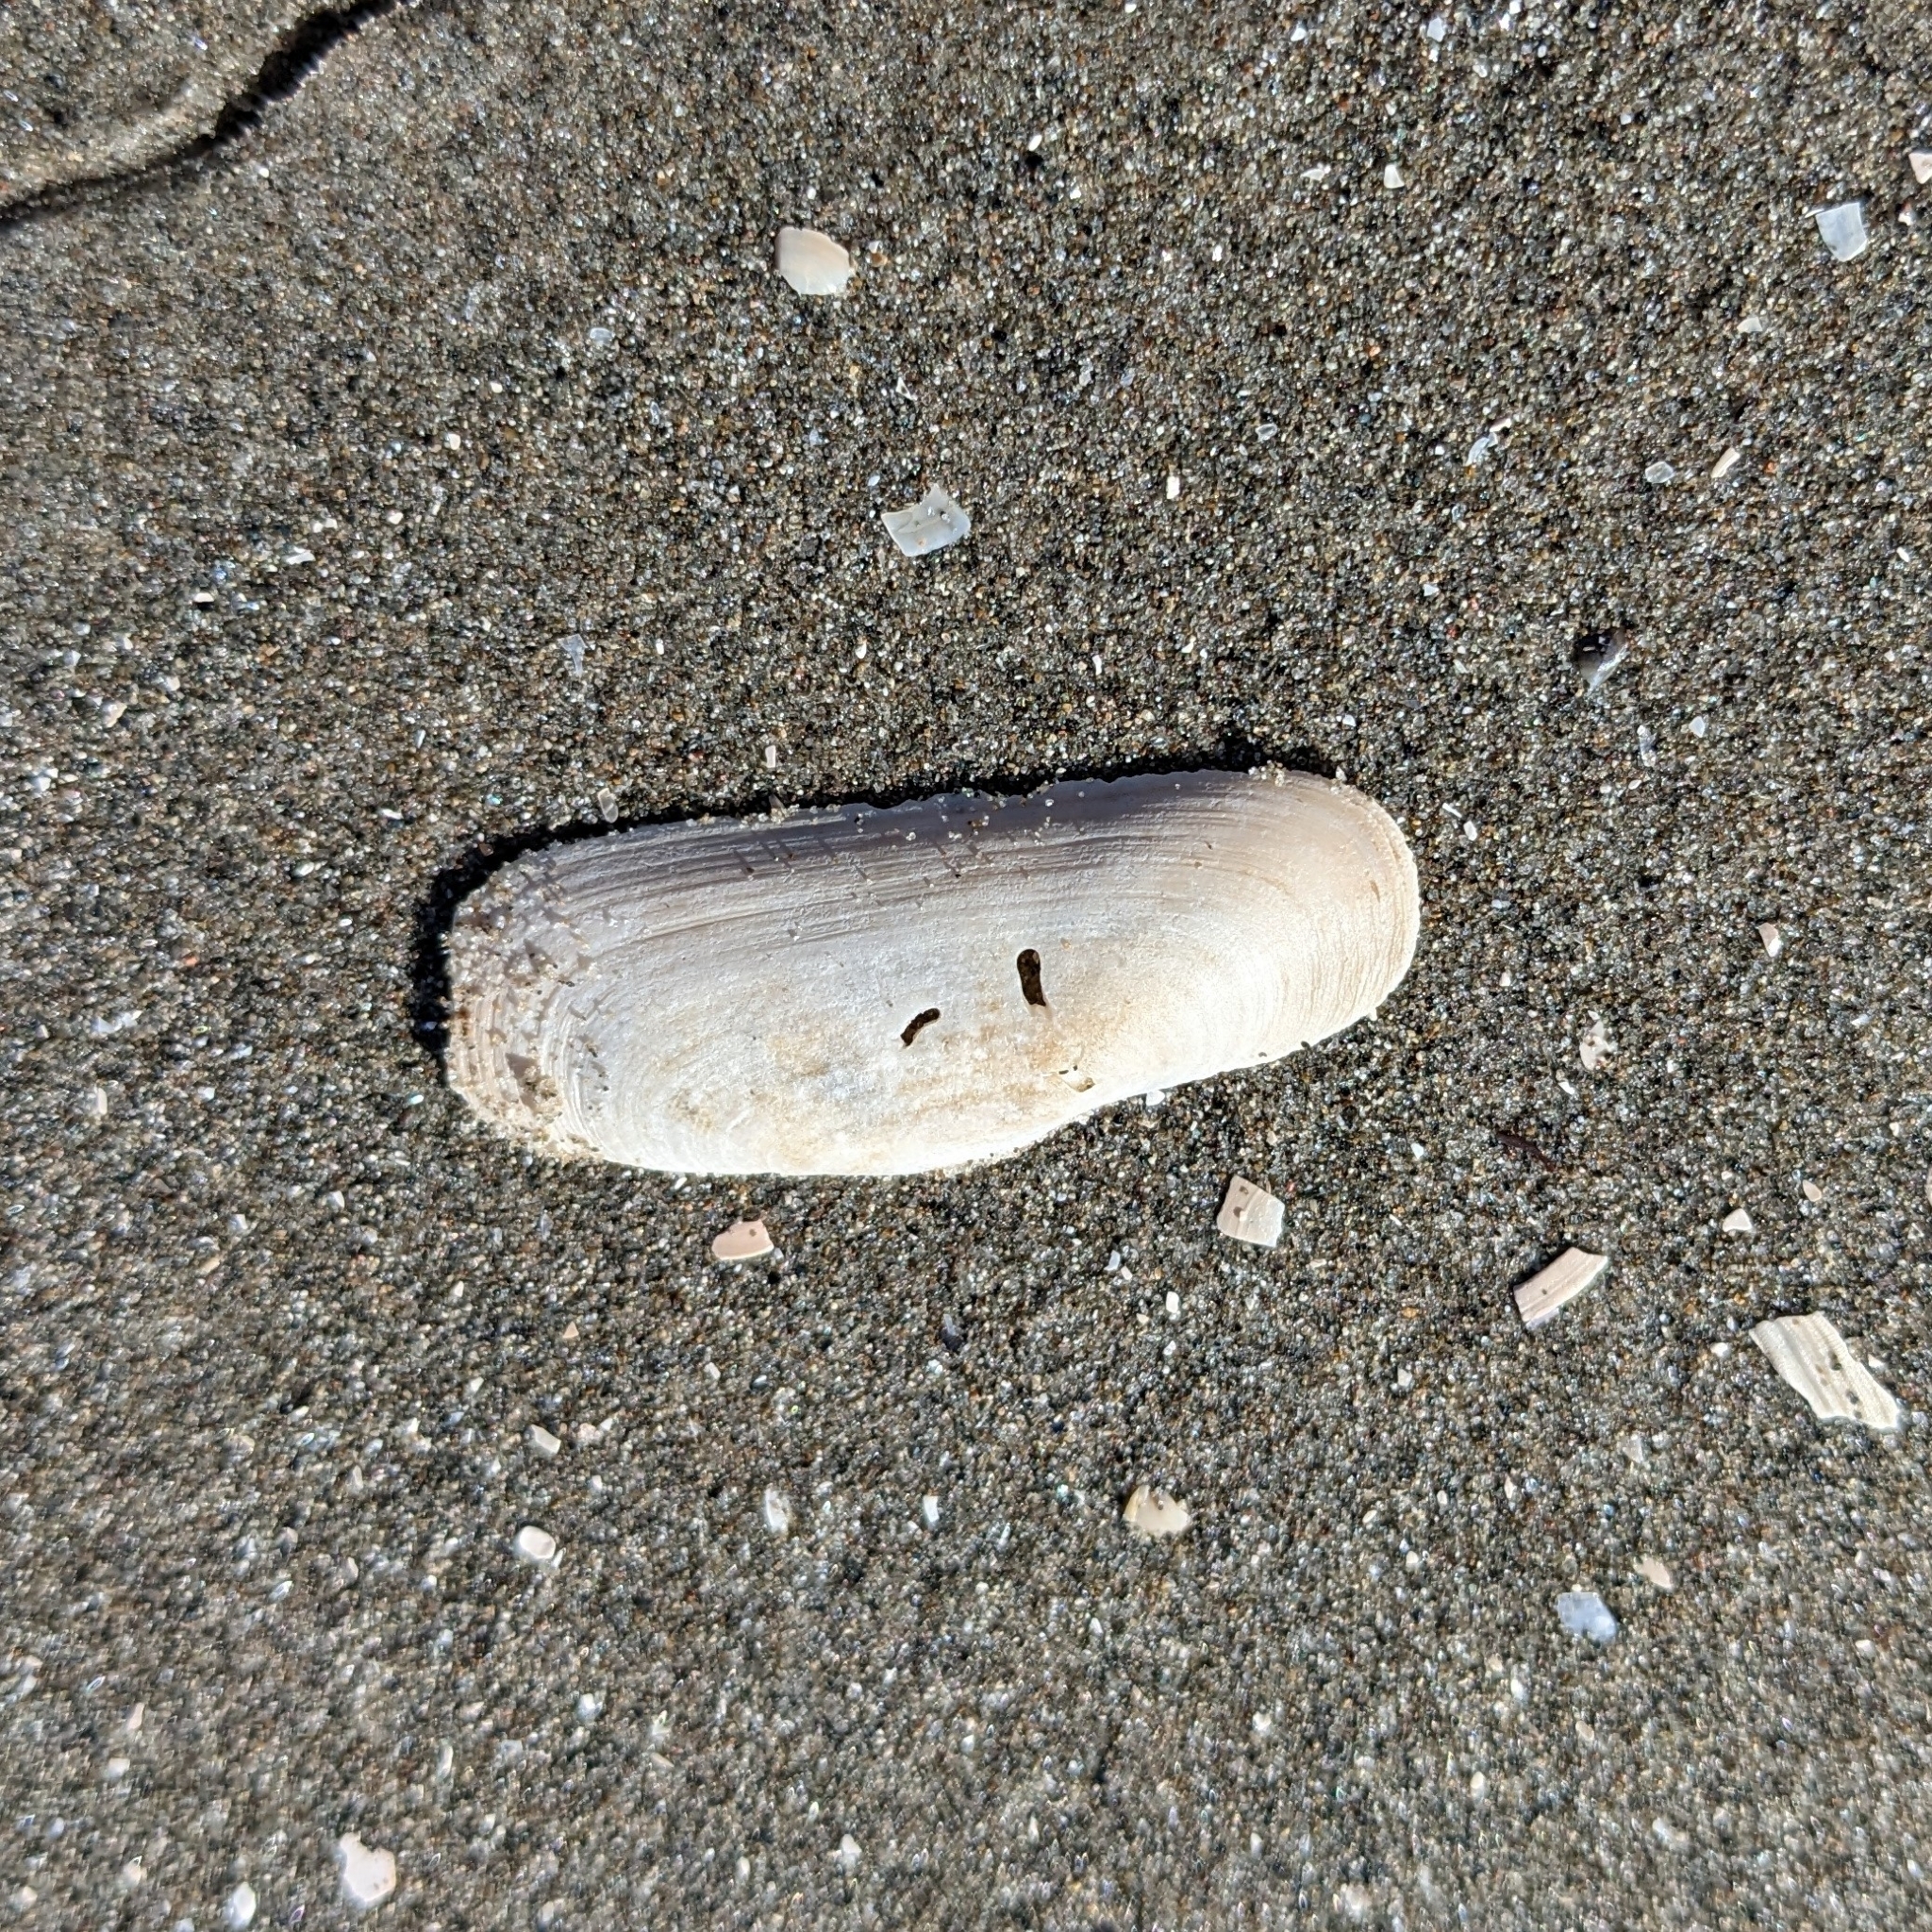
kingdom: Animalia
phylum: Mollusca
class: Bivalvia
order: Cardiida
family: Solecurtidae
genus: Tagelus
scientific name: Tagelus plebeius
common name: Stout tagelus
